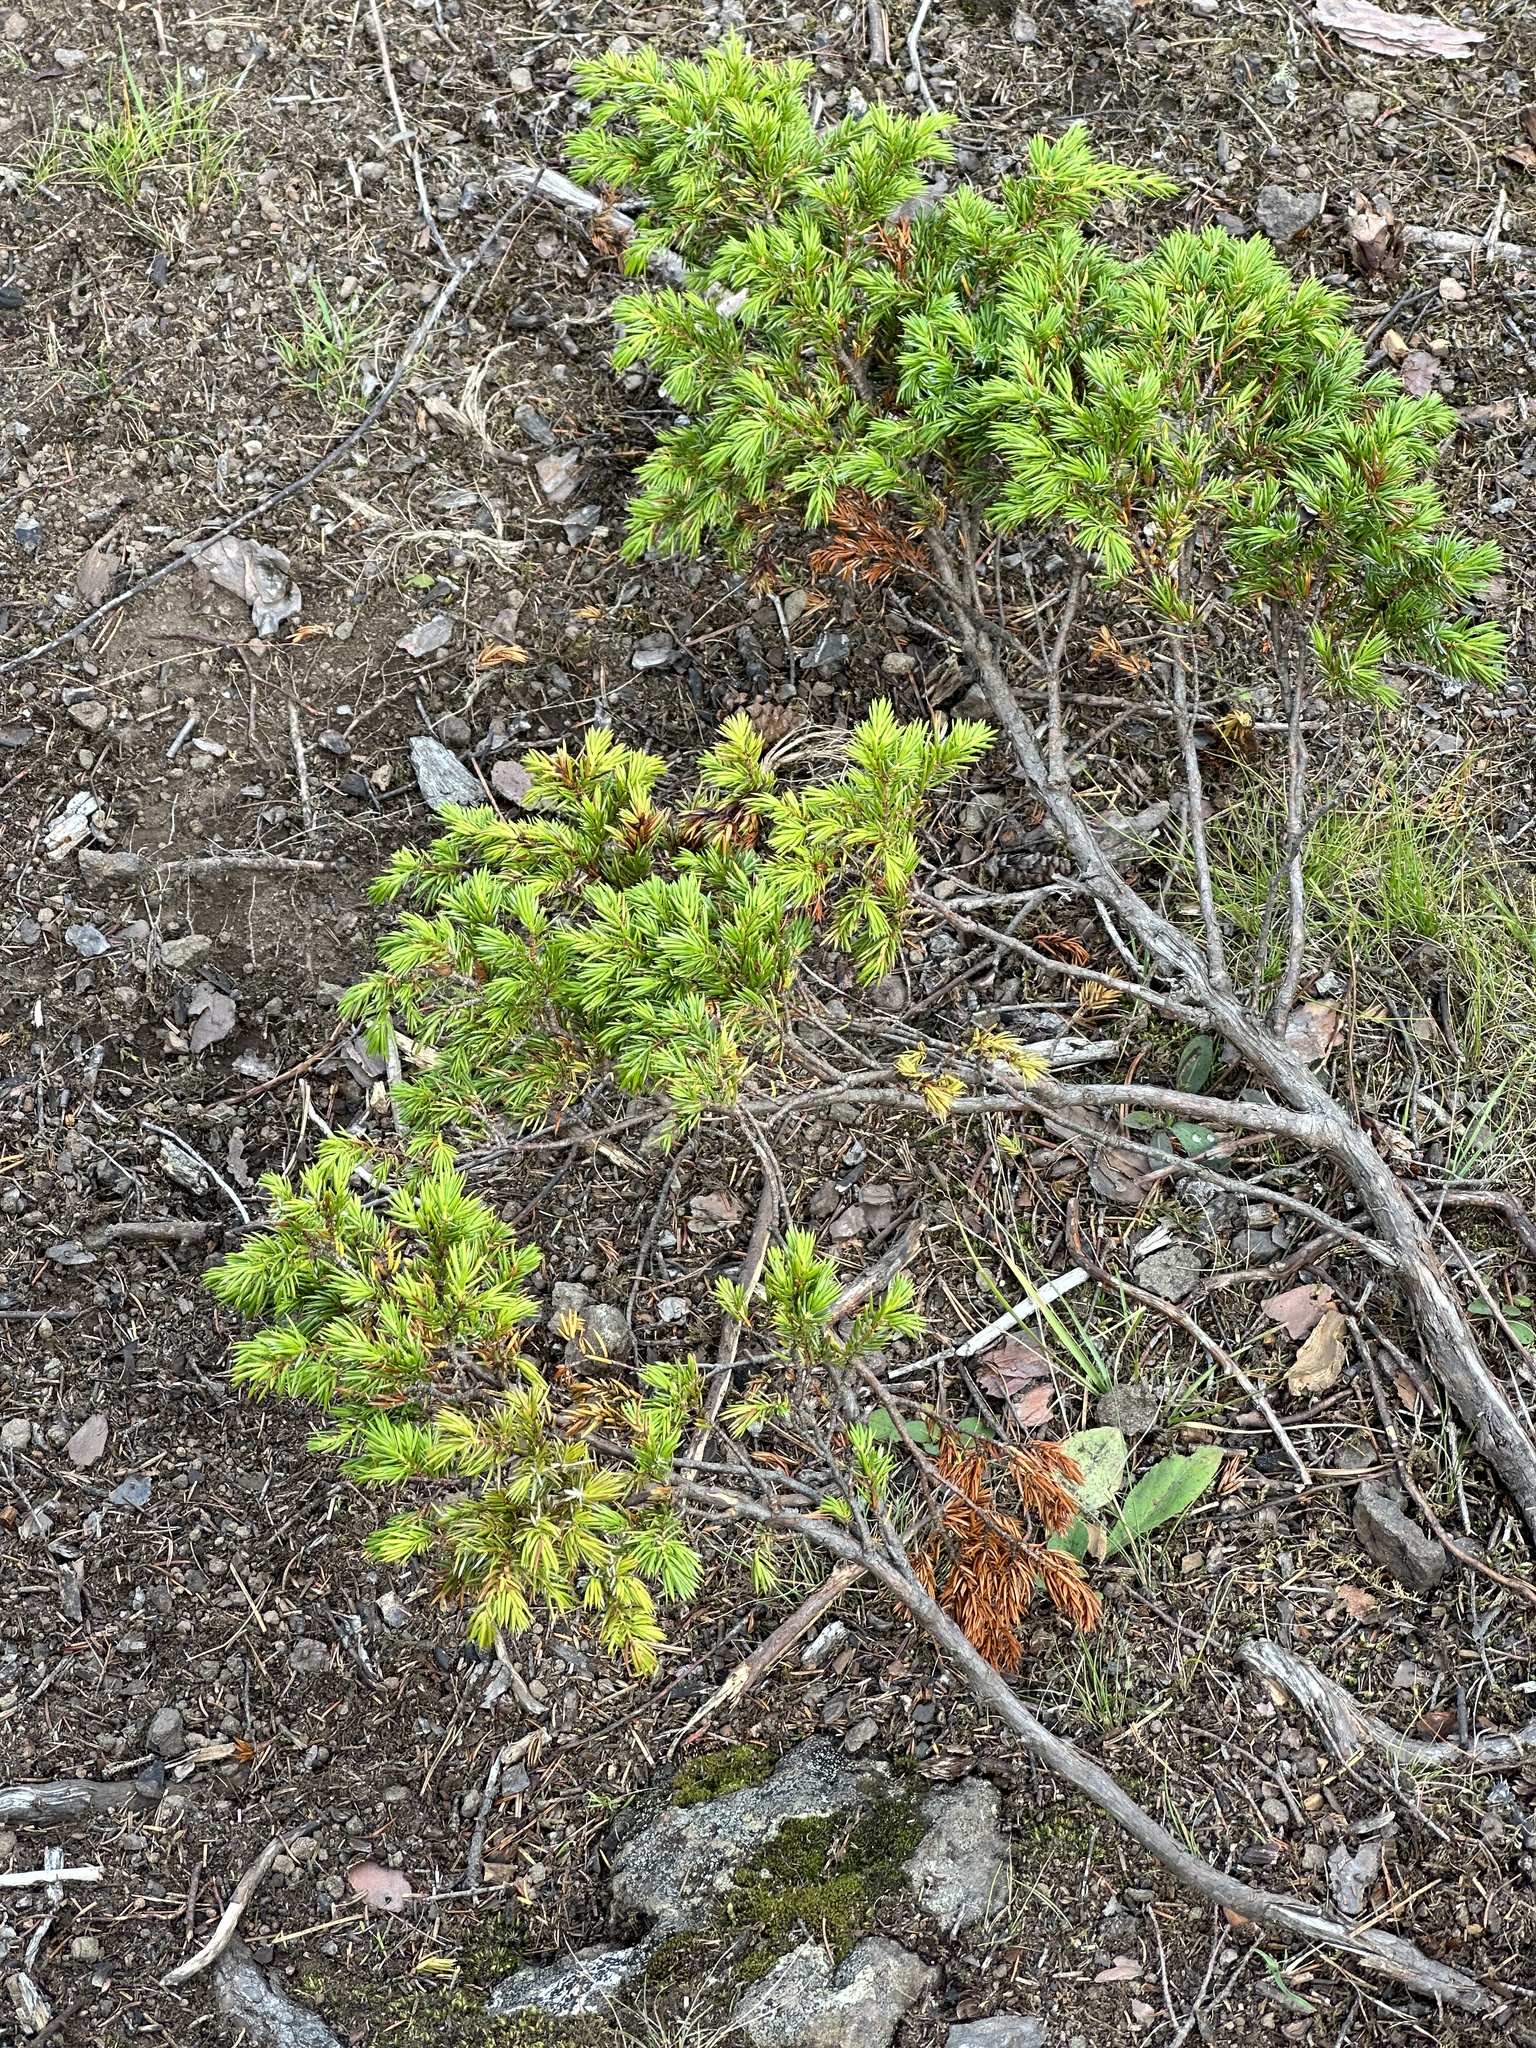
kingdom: Plantae
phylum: Tracheophyta
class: Pinopsida
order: Pinales
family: Cupressaceae
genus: Juniperus
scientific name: Juniperus communis
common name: Common juniper
